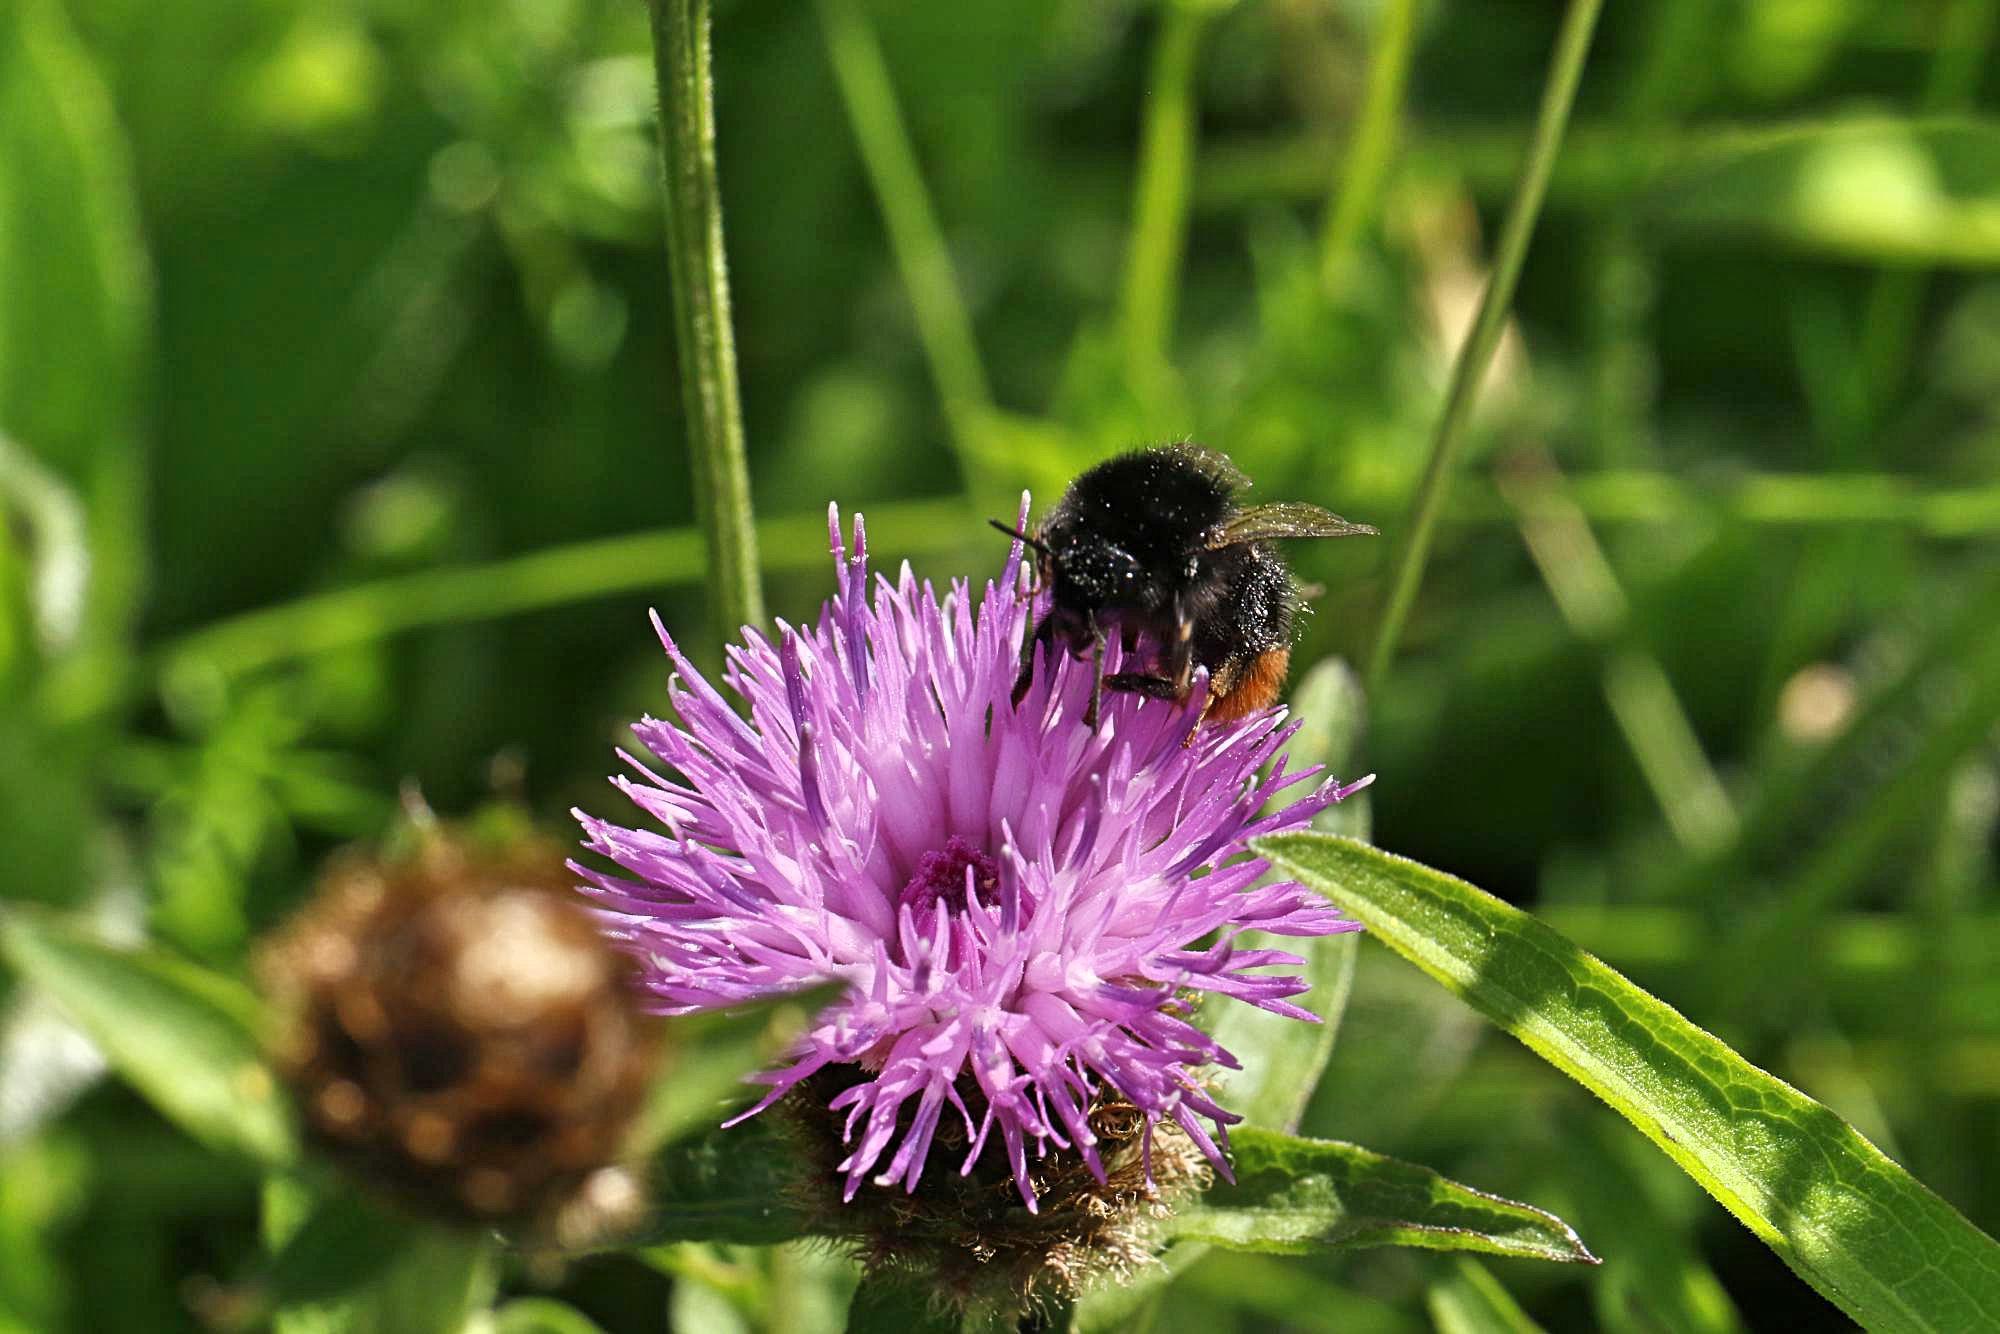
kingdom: Animalia
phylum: Arthropoda
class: Insecta
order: Hymenoptera
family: Apidae
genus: Bombus
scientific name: Bombus lapidarius
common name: Large red-tailed humble-bee
